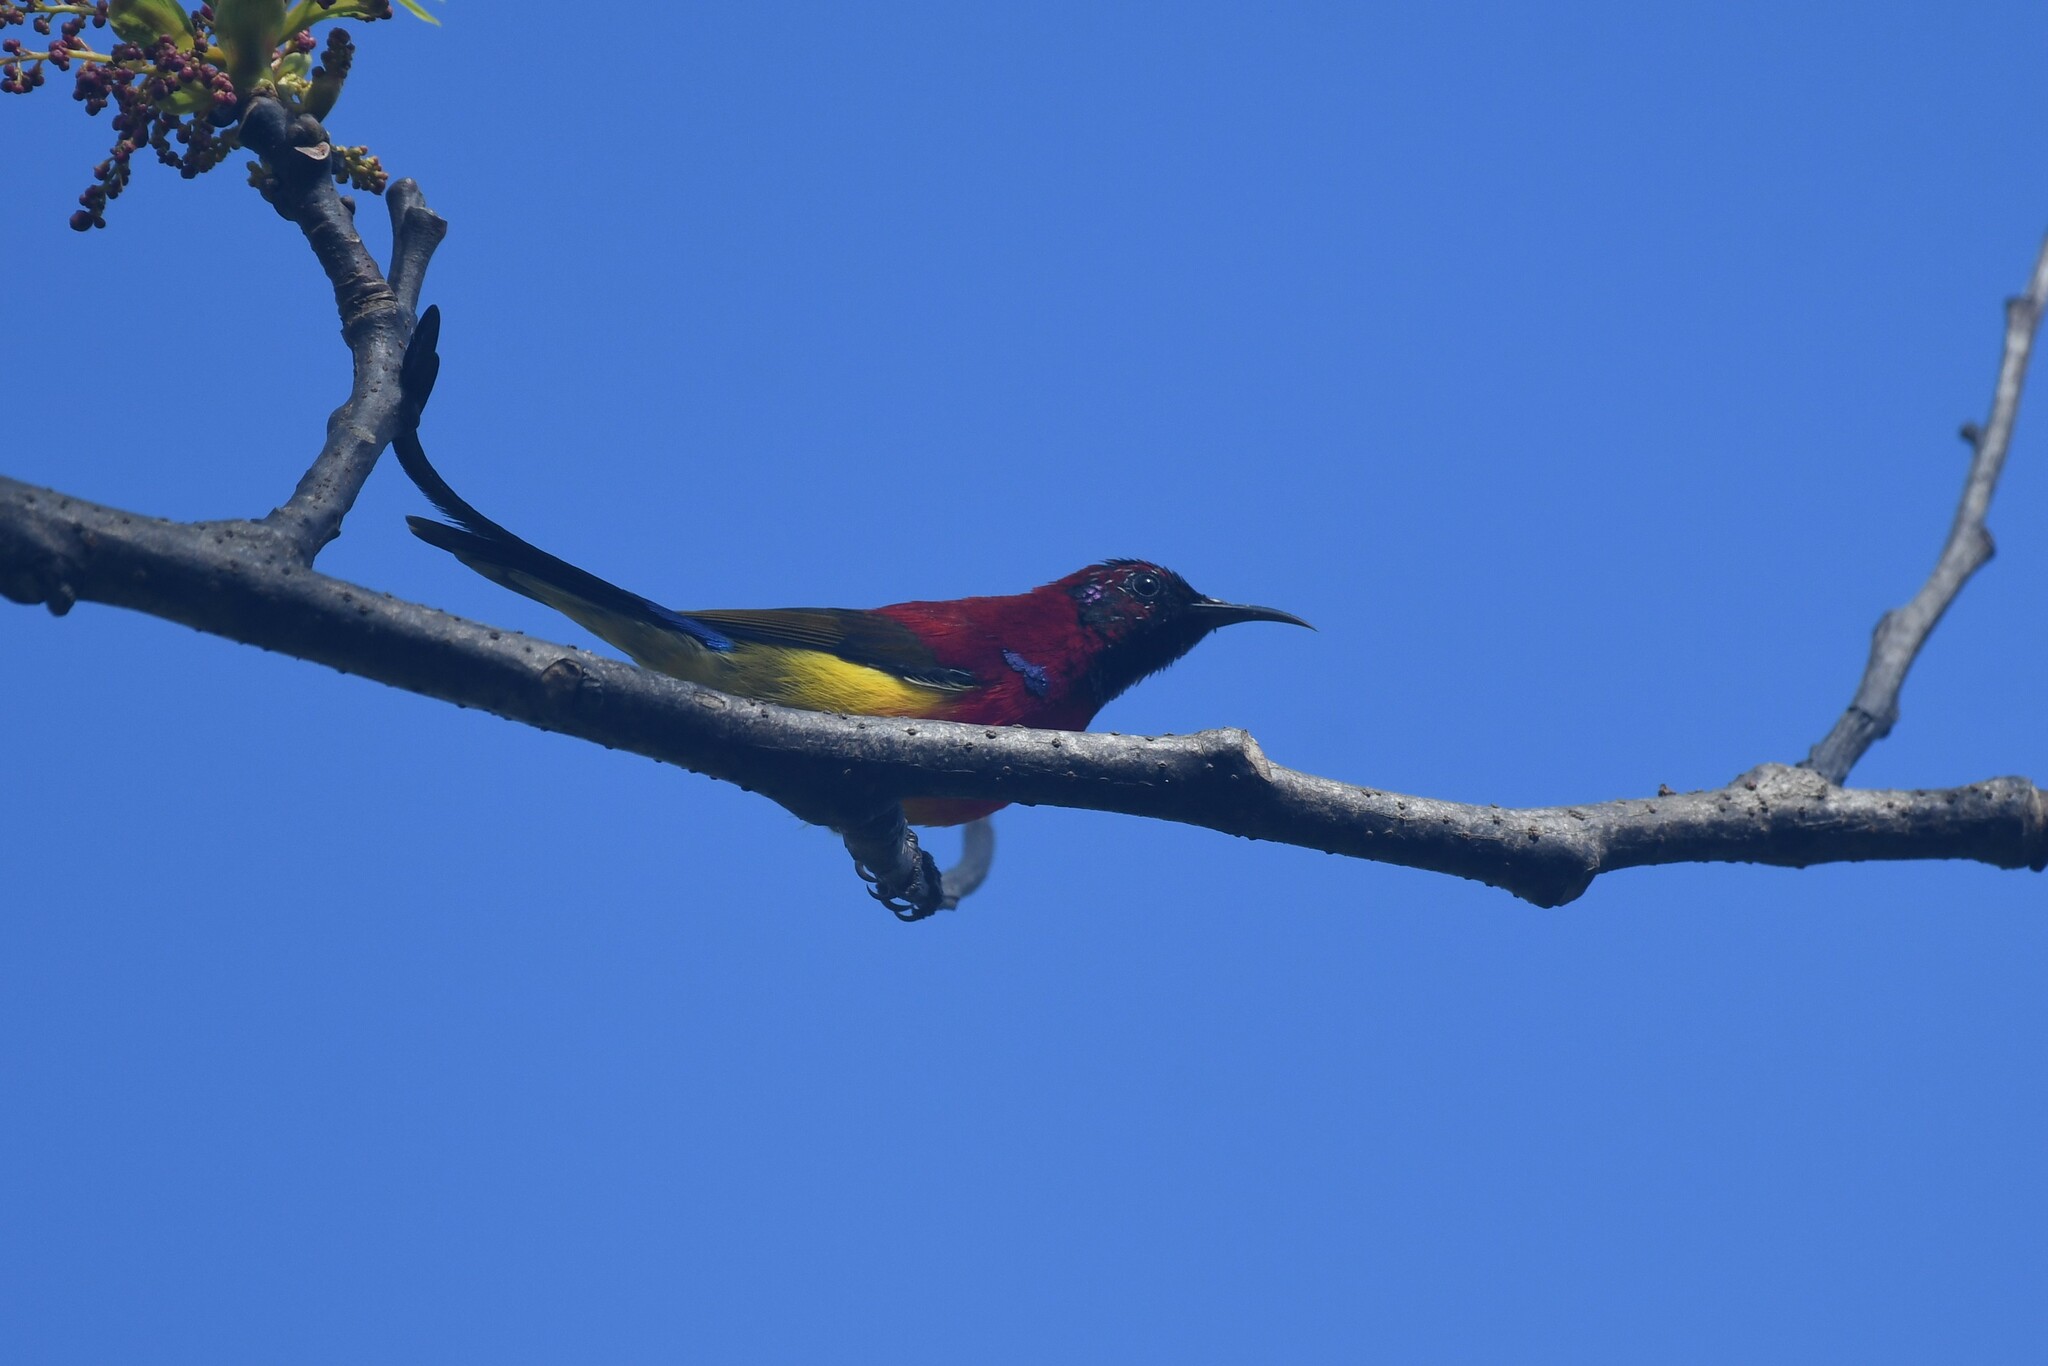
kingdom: Animalia
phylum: Chordata
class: Aves
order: Passeriformes
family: Nectariniidae
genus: Aethopyga
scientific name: Aethopyga gouldiae
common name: Mrs. gould's sunbird
